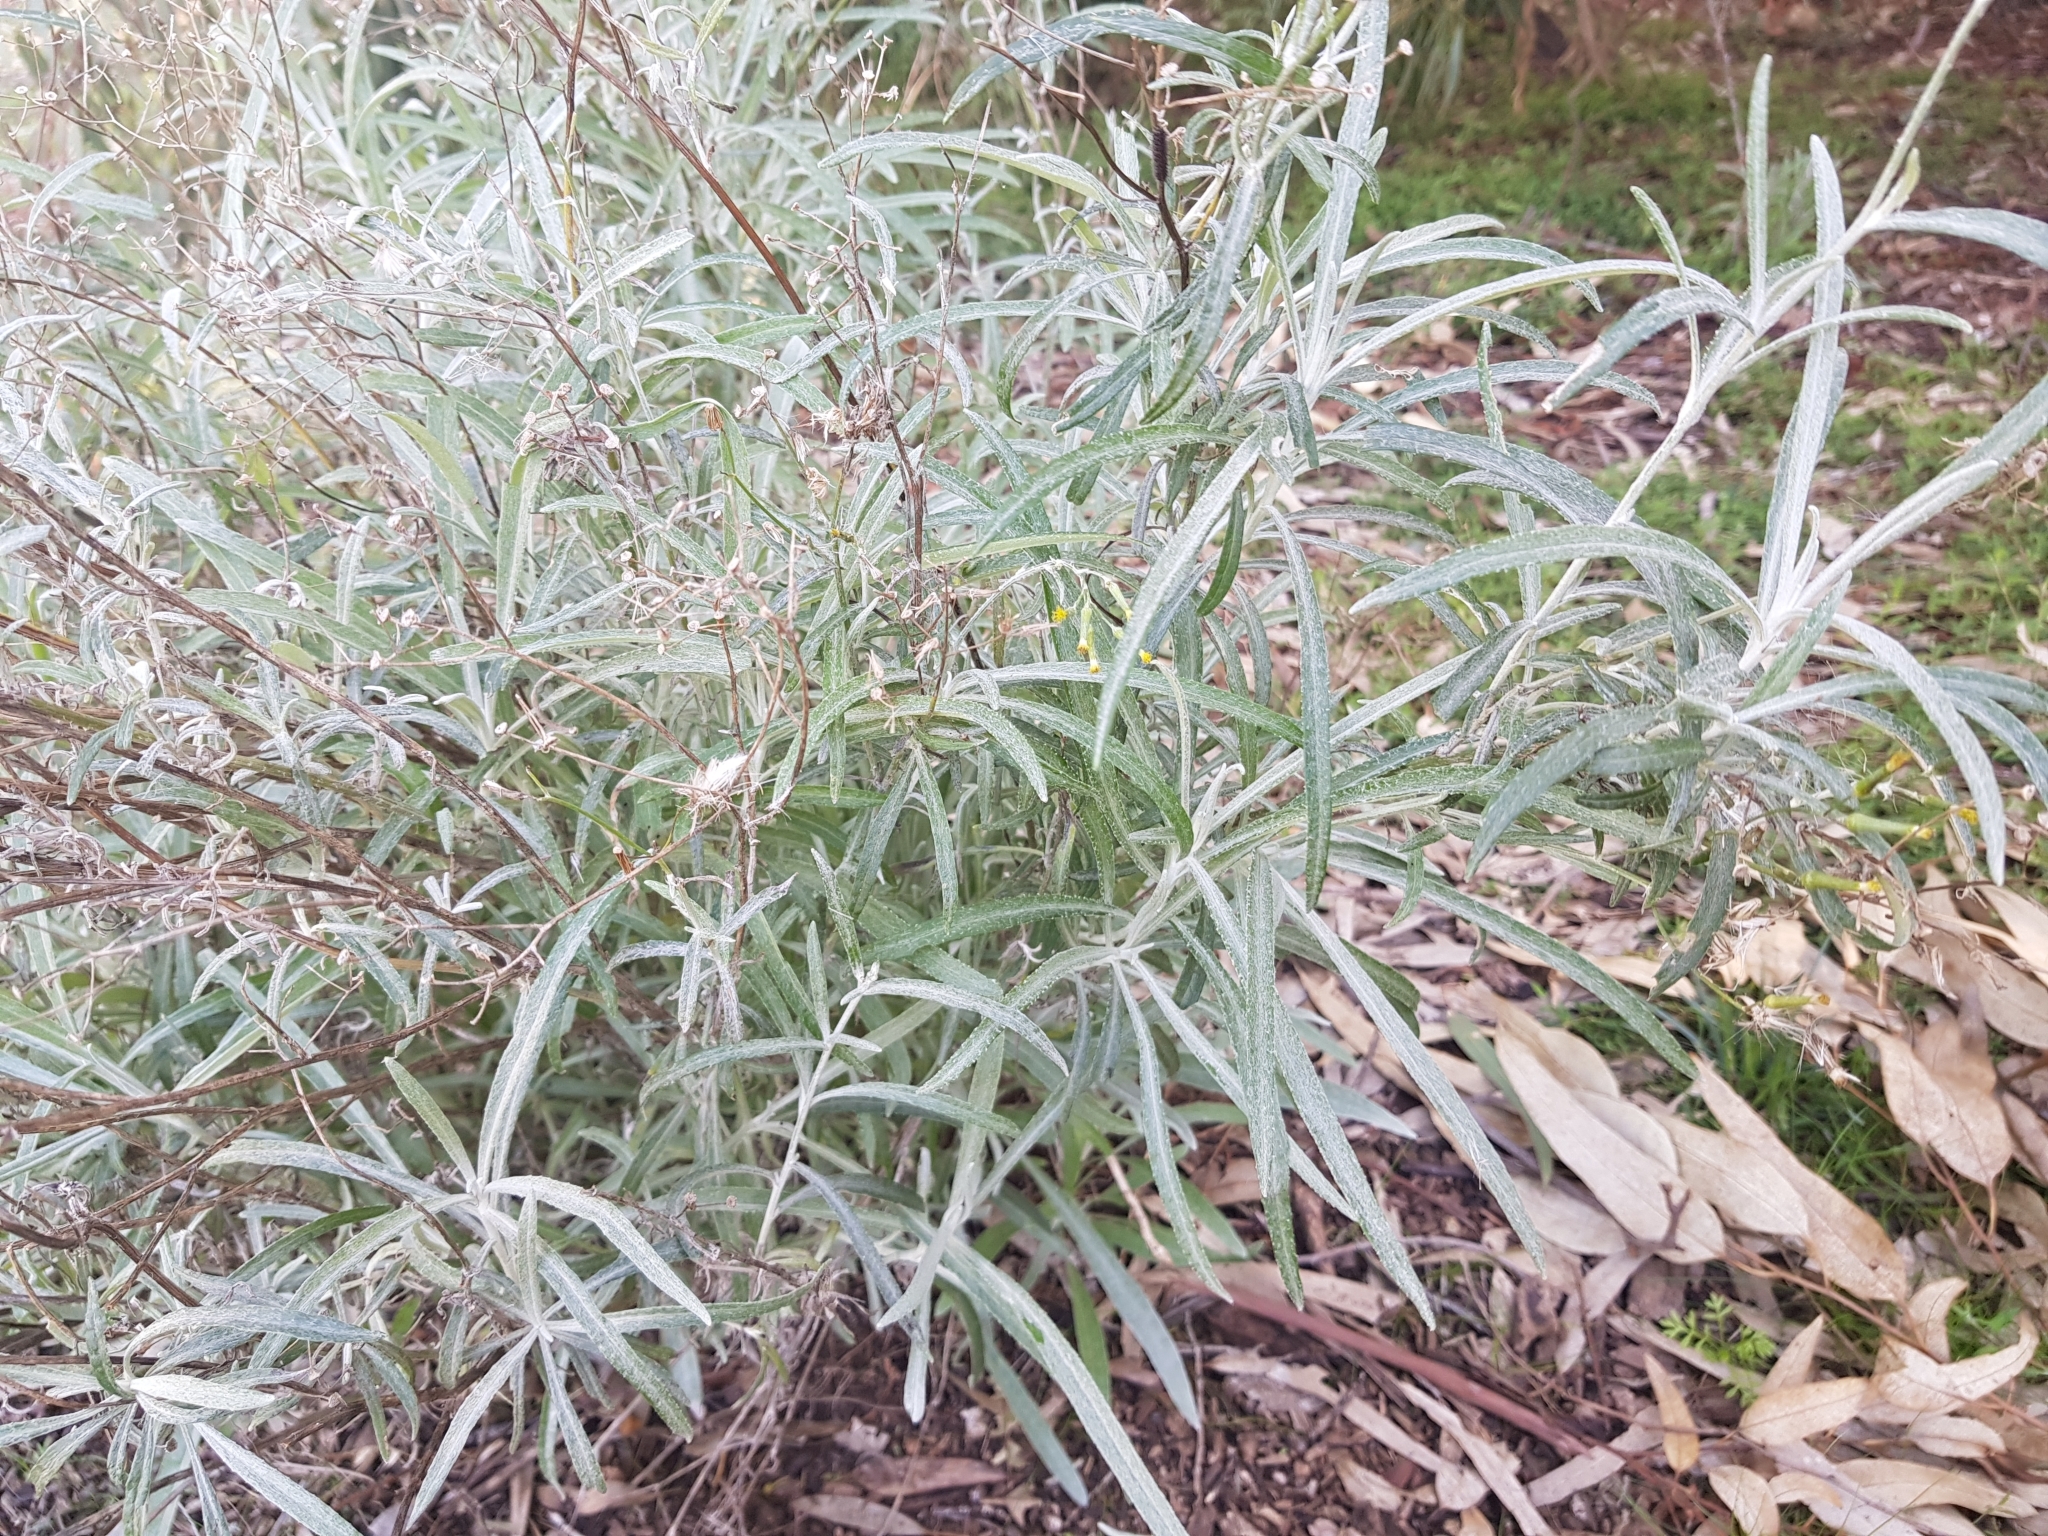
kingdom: Plantae
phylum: Tracheophyta
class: Magnoliopsida
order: Asterales
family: Asteraceae
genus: Senecio
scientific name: Senecio quadridentatus
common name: Cotton fireweed
